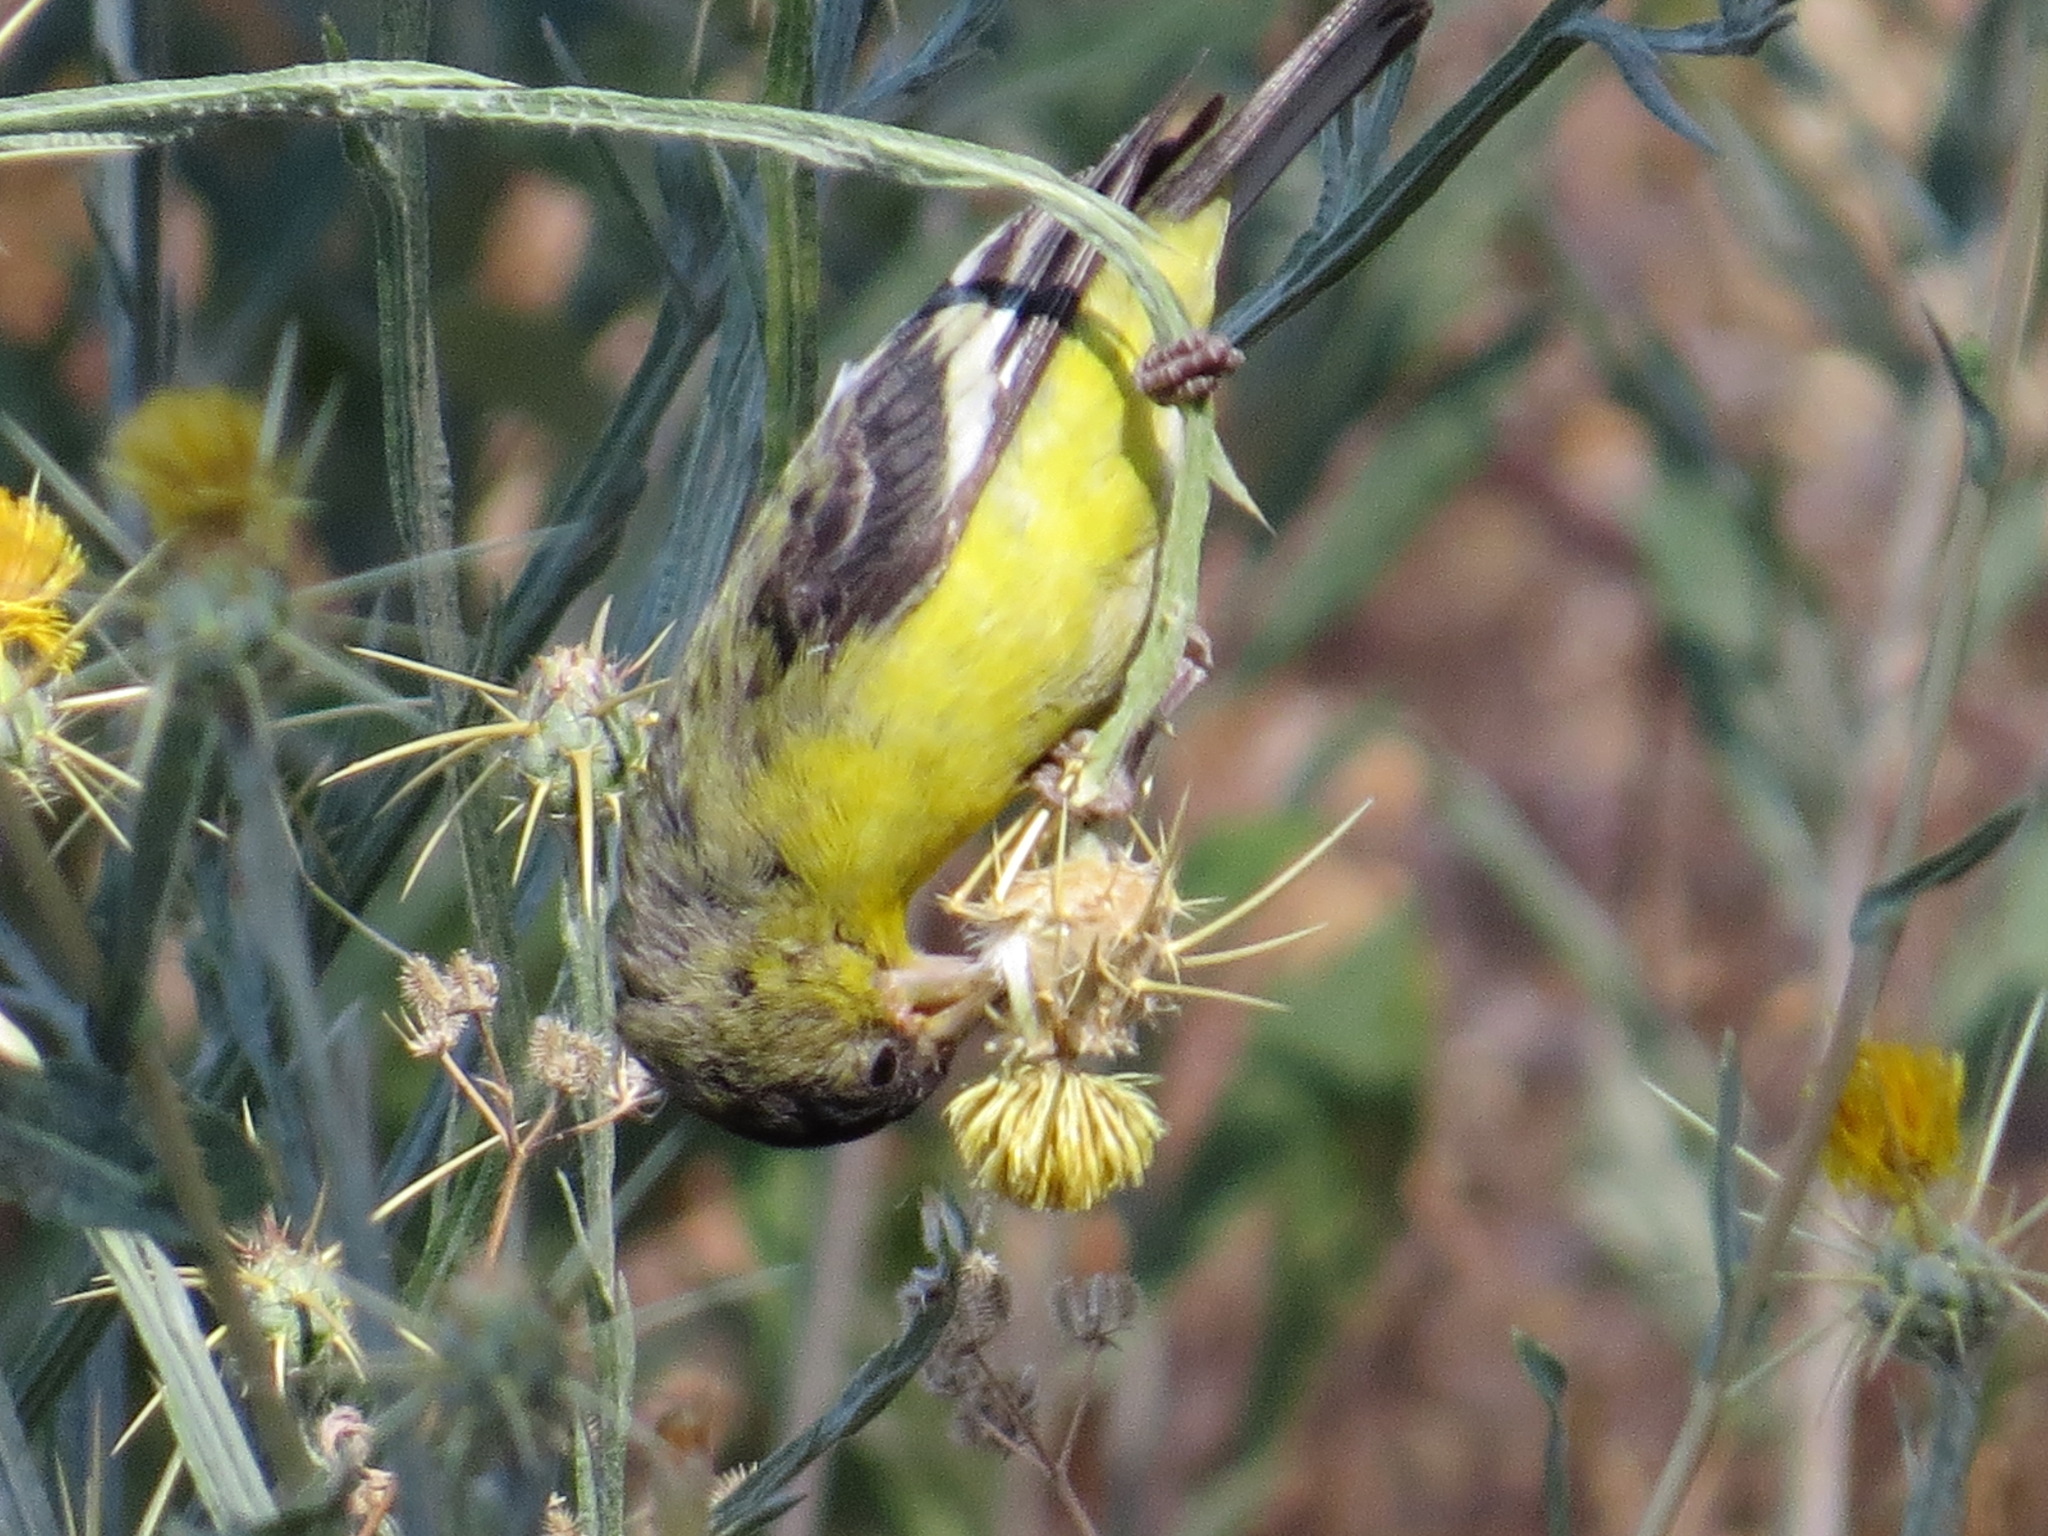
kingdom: Animalia
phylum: Chordata
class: Aves
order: Passeriformes
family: Fringillidae
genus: Spinus
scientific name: Spinus psaltria
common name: Lesser goldfinch
